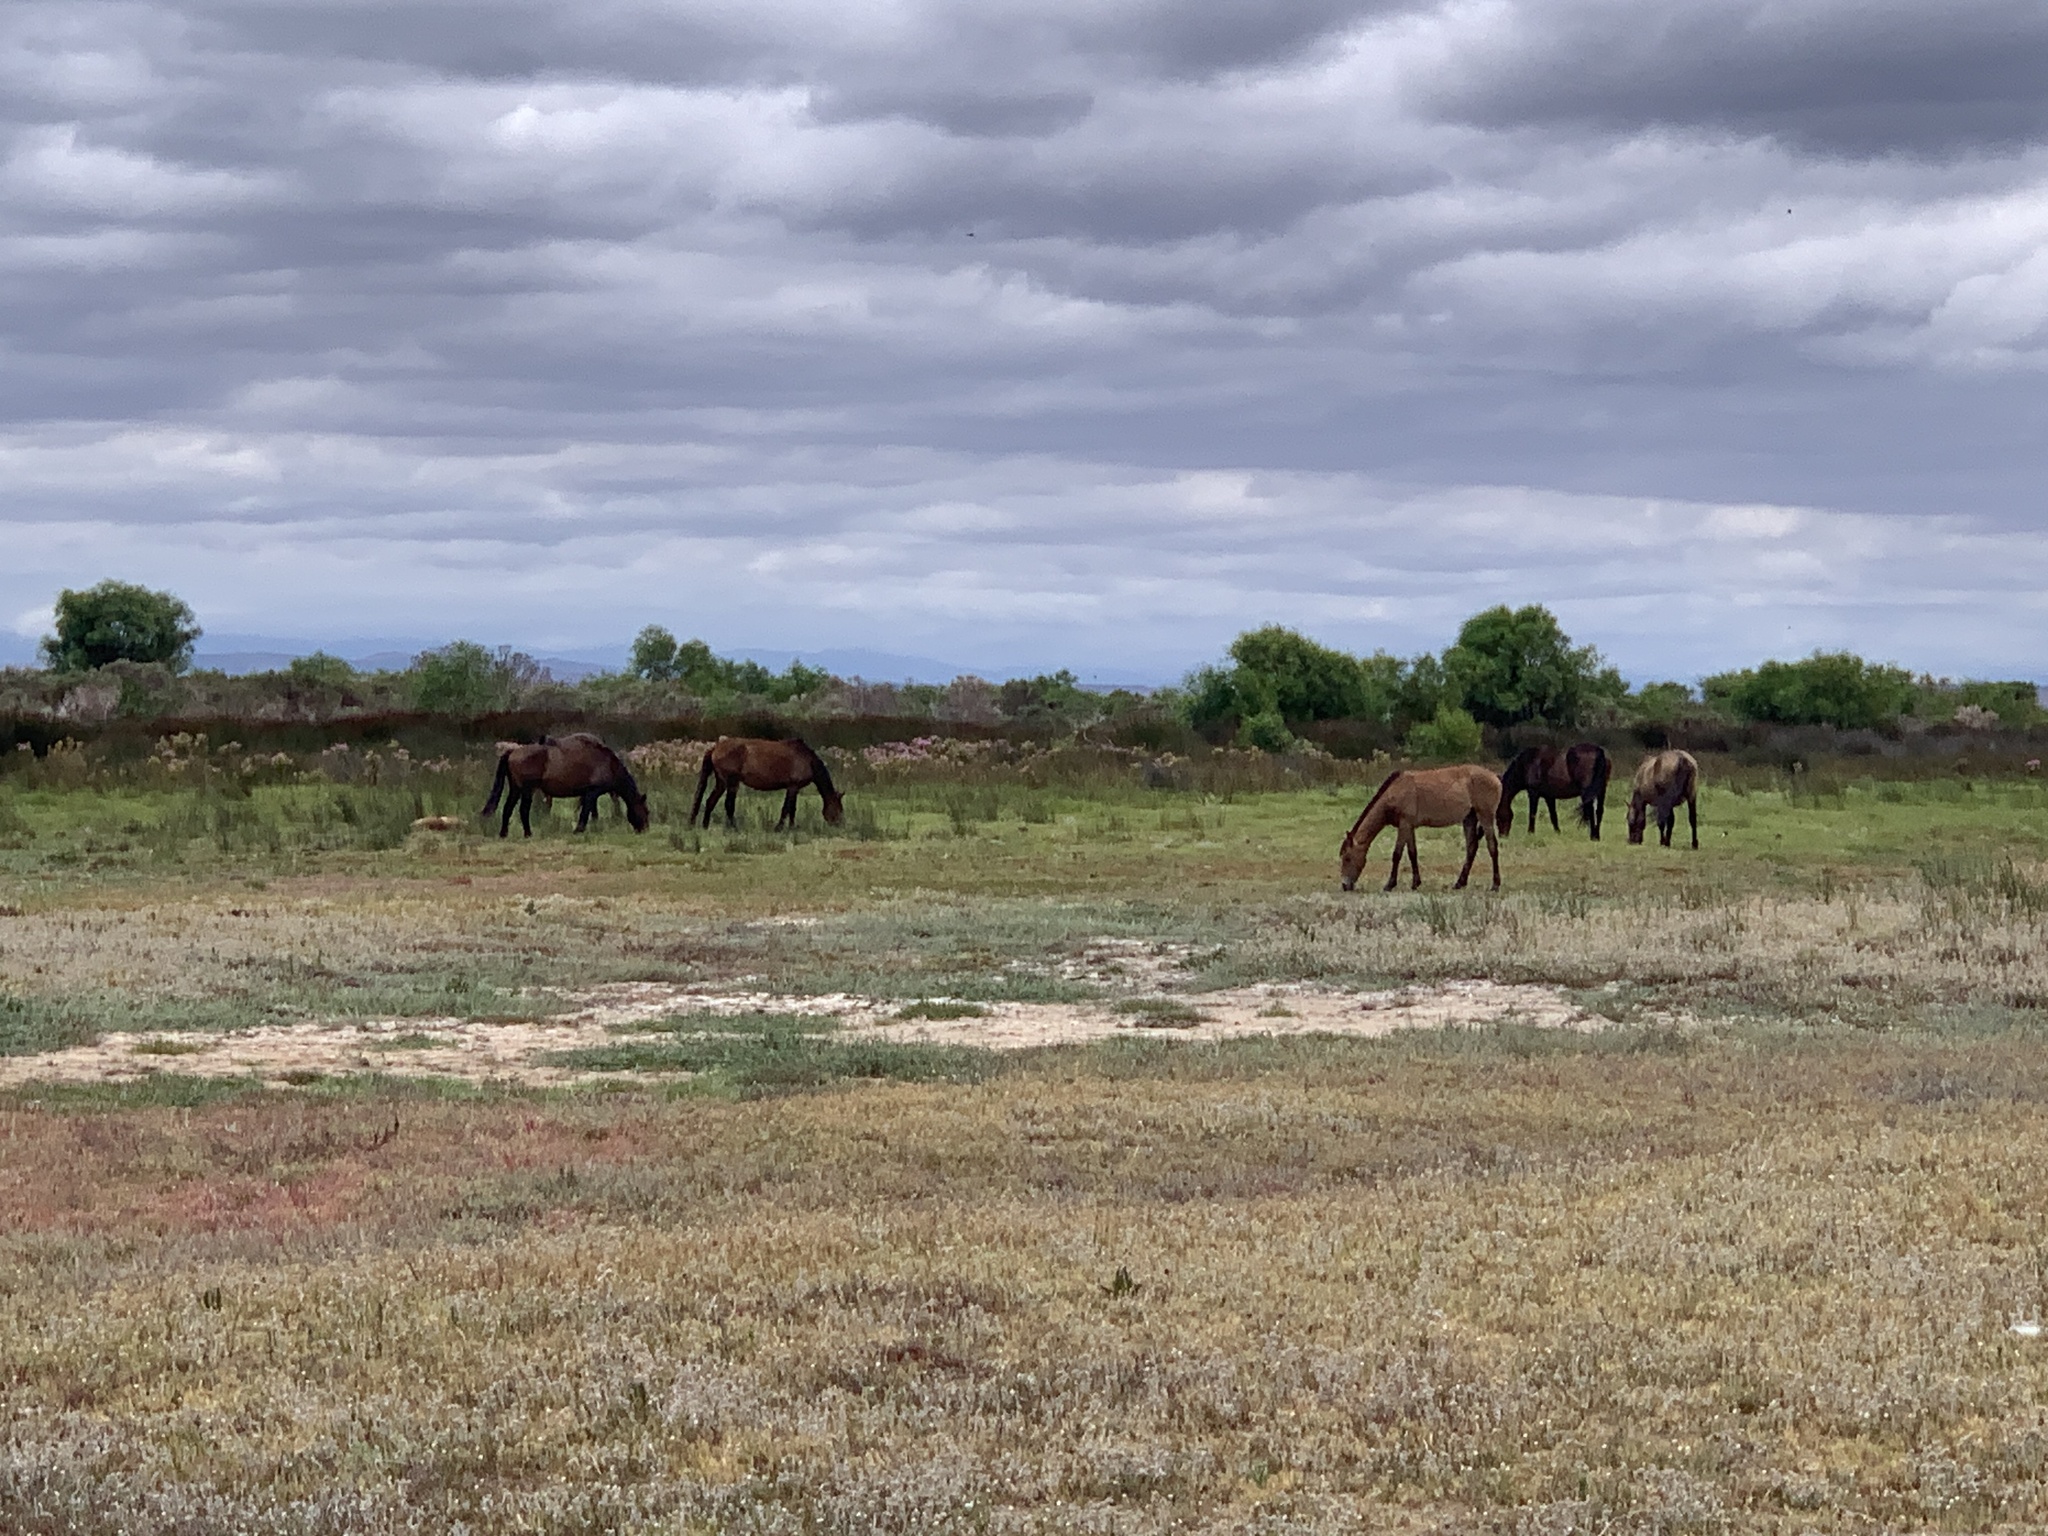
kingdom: Animalia
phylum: Chordata
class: Mammalia
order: Perissodactyla
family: Equidae
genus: Equus
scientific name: Equus caballus
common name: Horse
